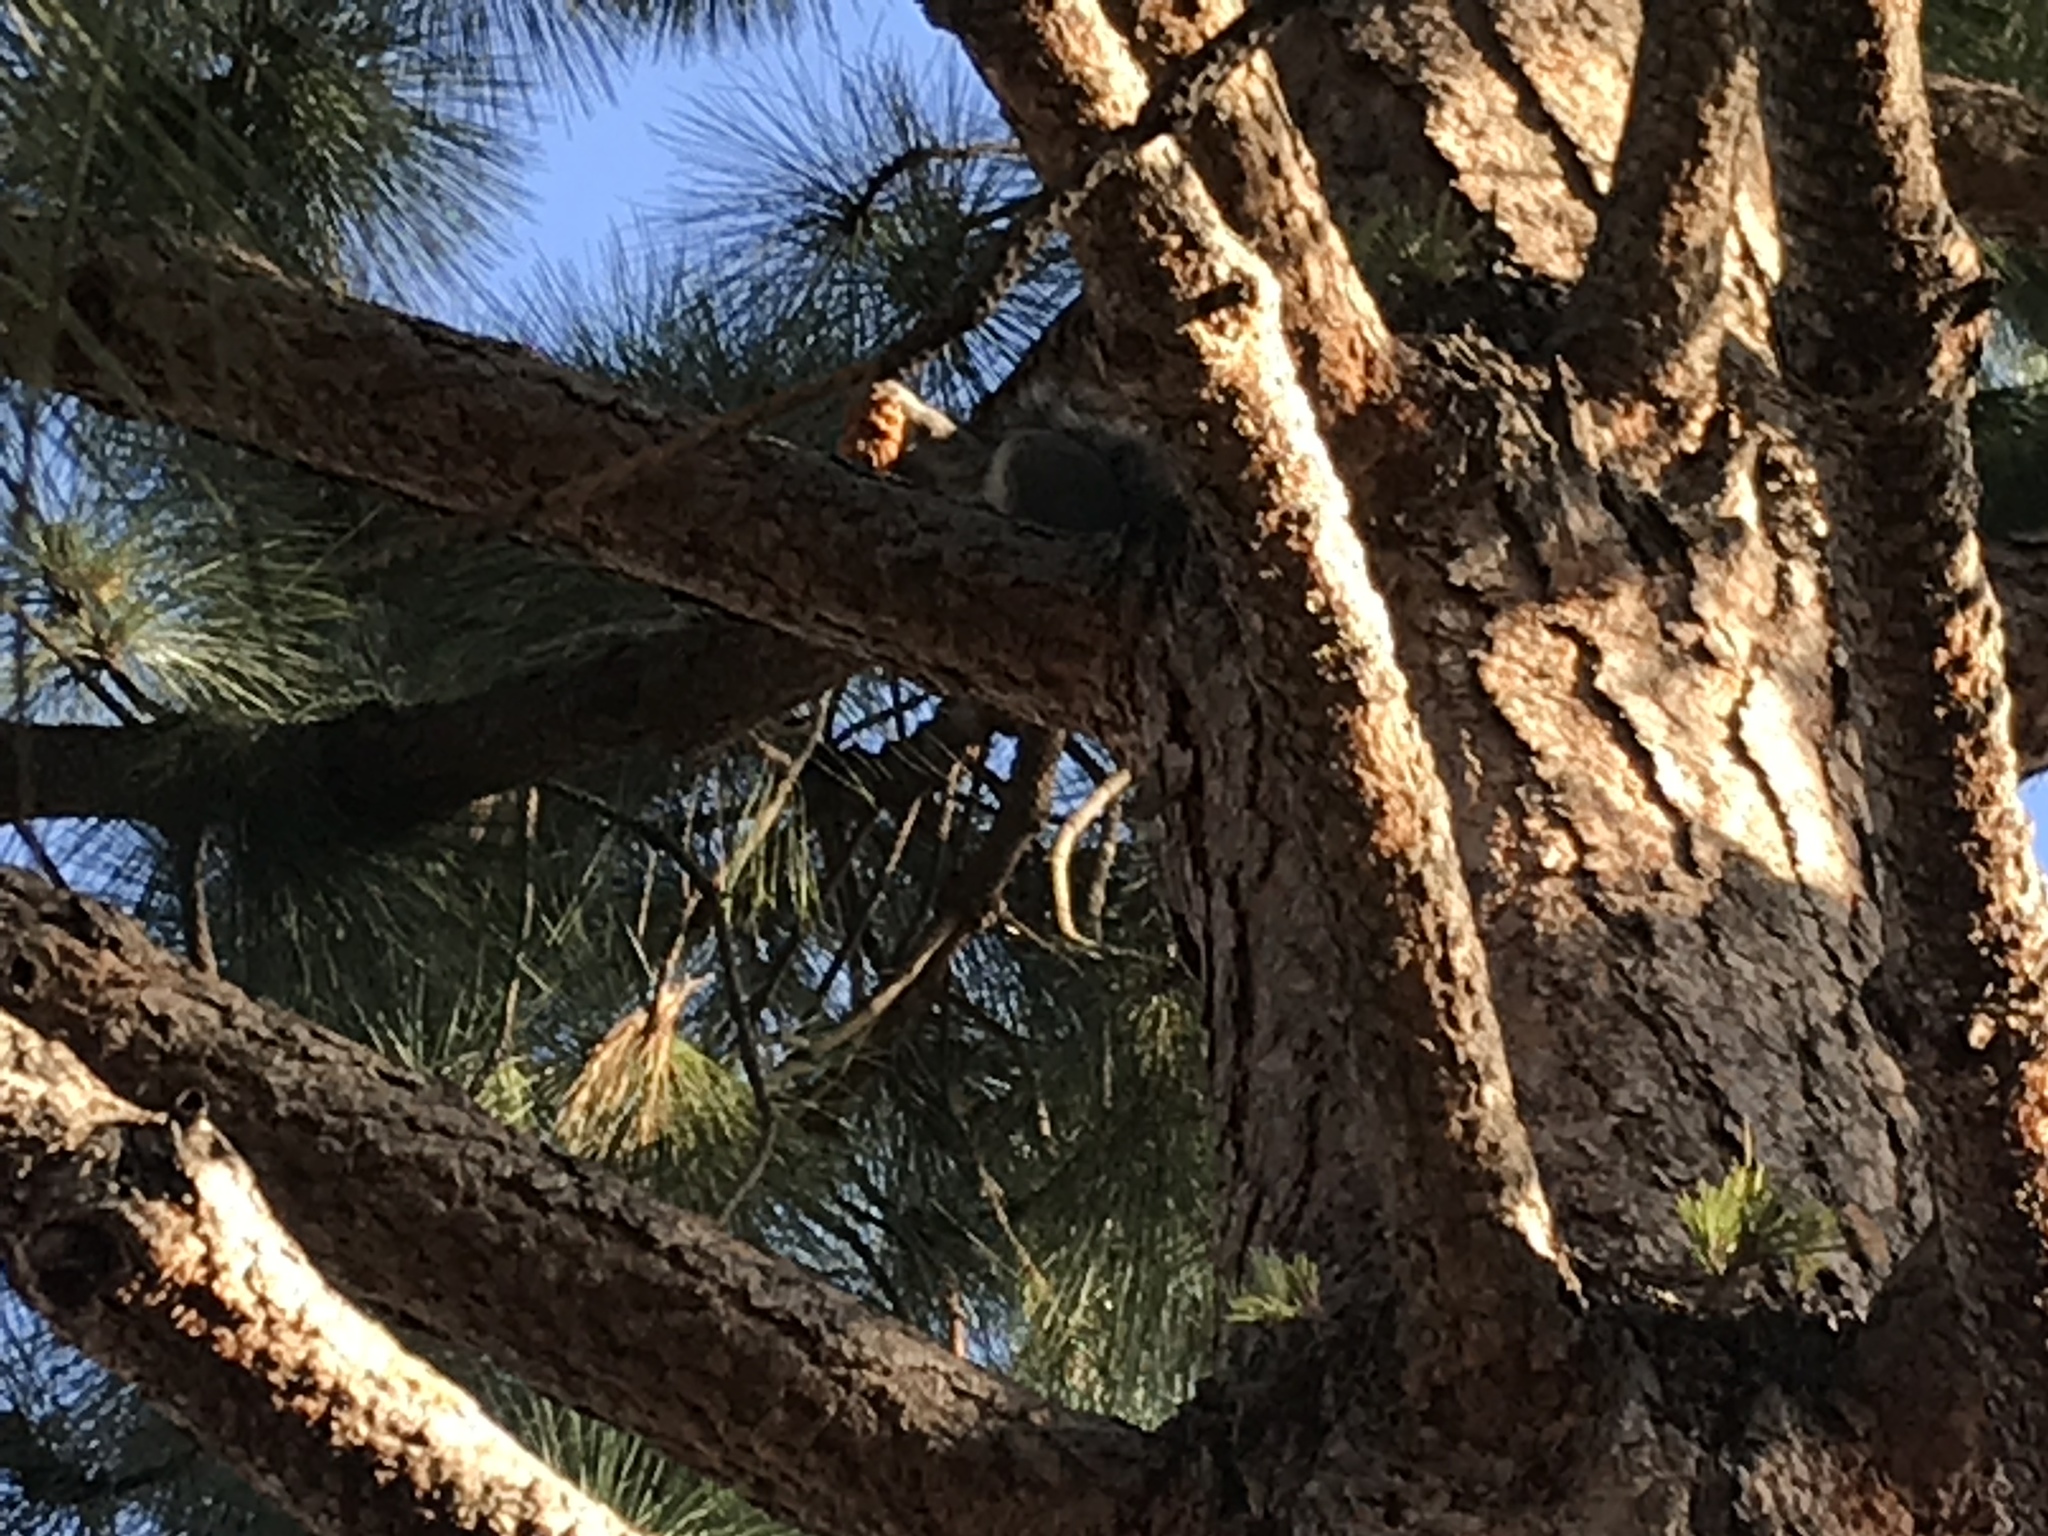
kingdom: Animalia
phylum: Chordata
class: Mammalia
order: Rodentia
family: Sciuridae
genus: Sciurus
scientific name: Sciurus carolinensis
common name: Eastern gray squirrel
